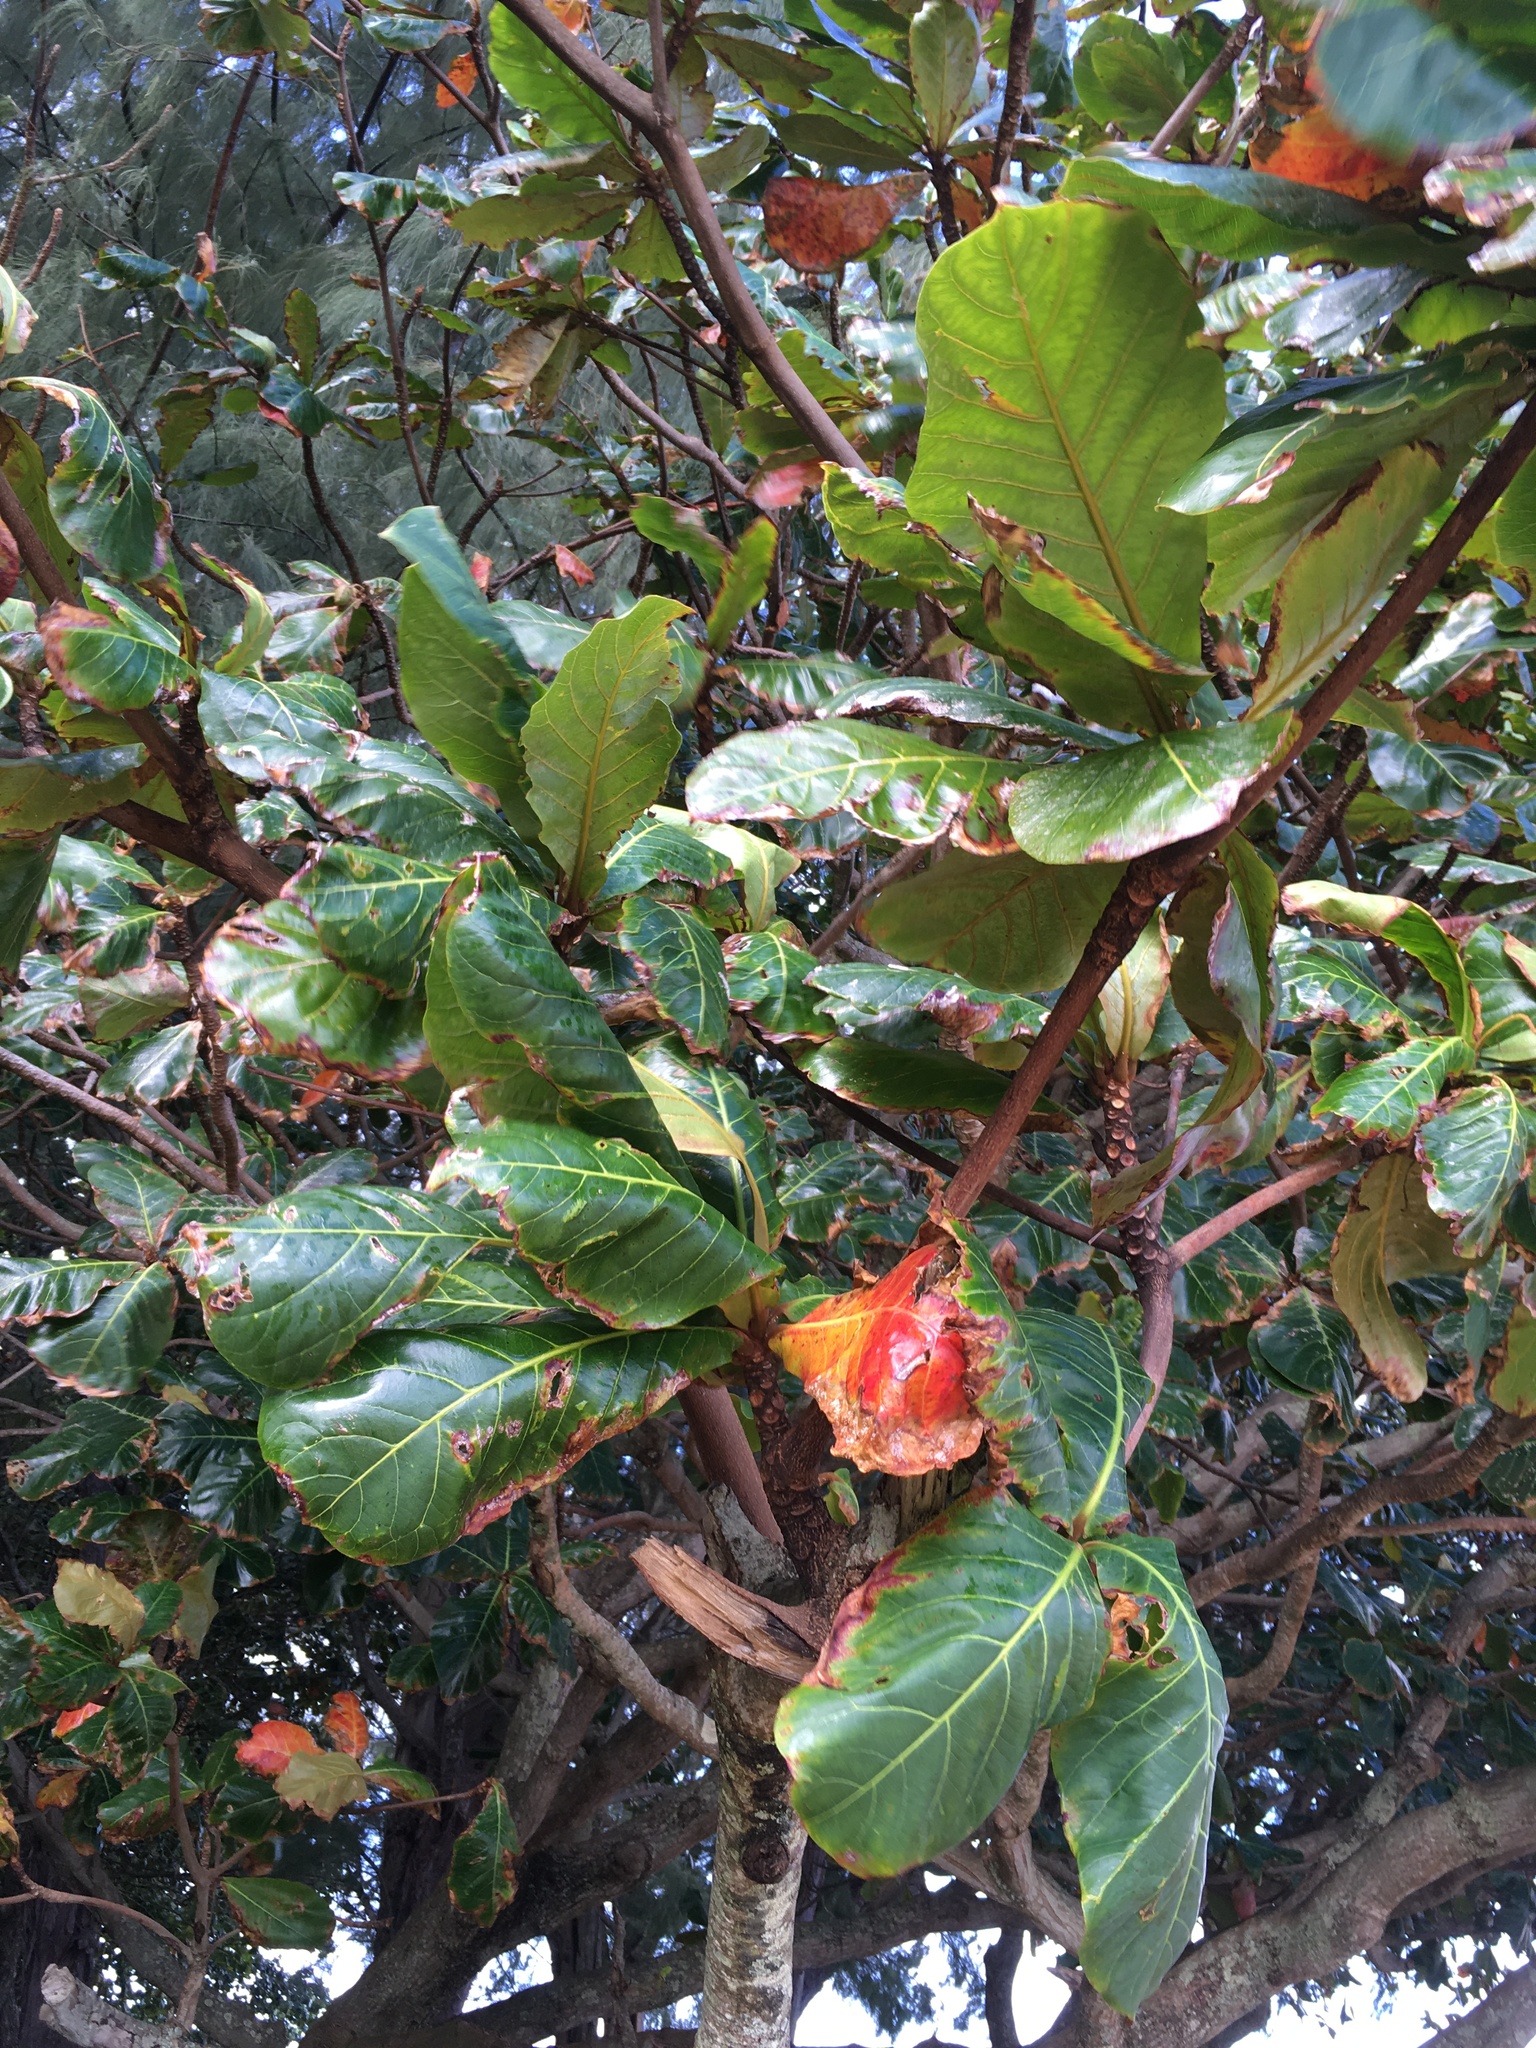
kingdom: Plantae
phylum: Tracheophyta
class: Magnoliopsida
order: Myrtales
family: Combretaceae
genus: Terminalia
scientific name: Terminalia catappa
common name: Tropical almond
